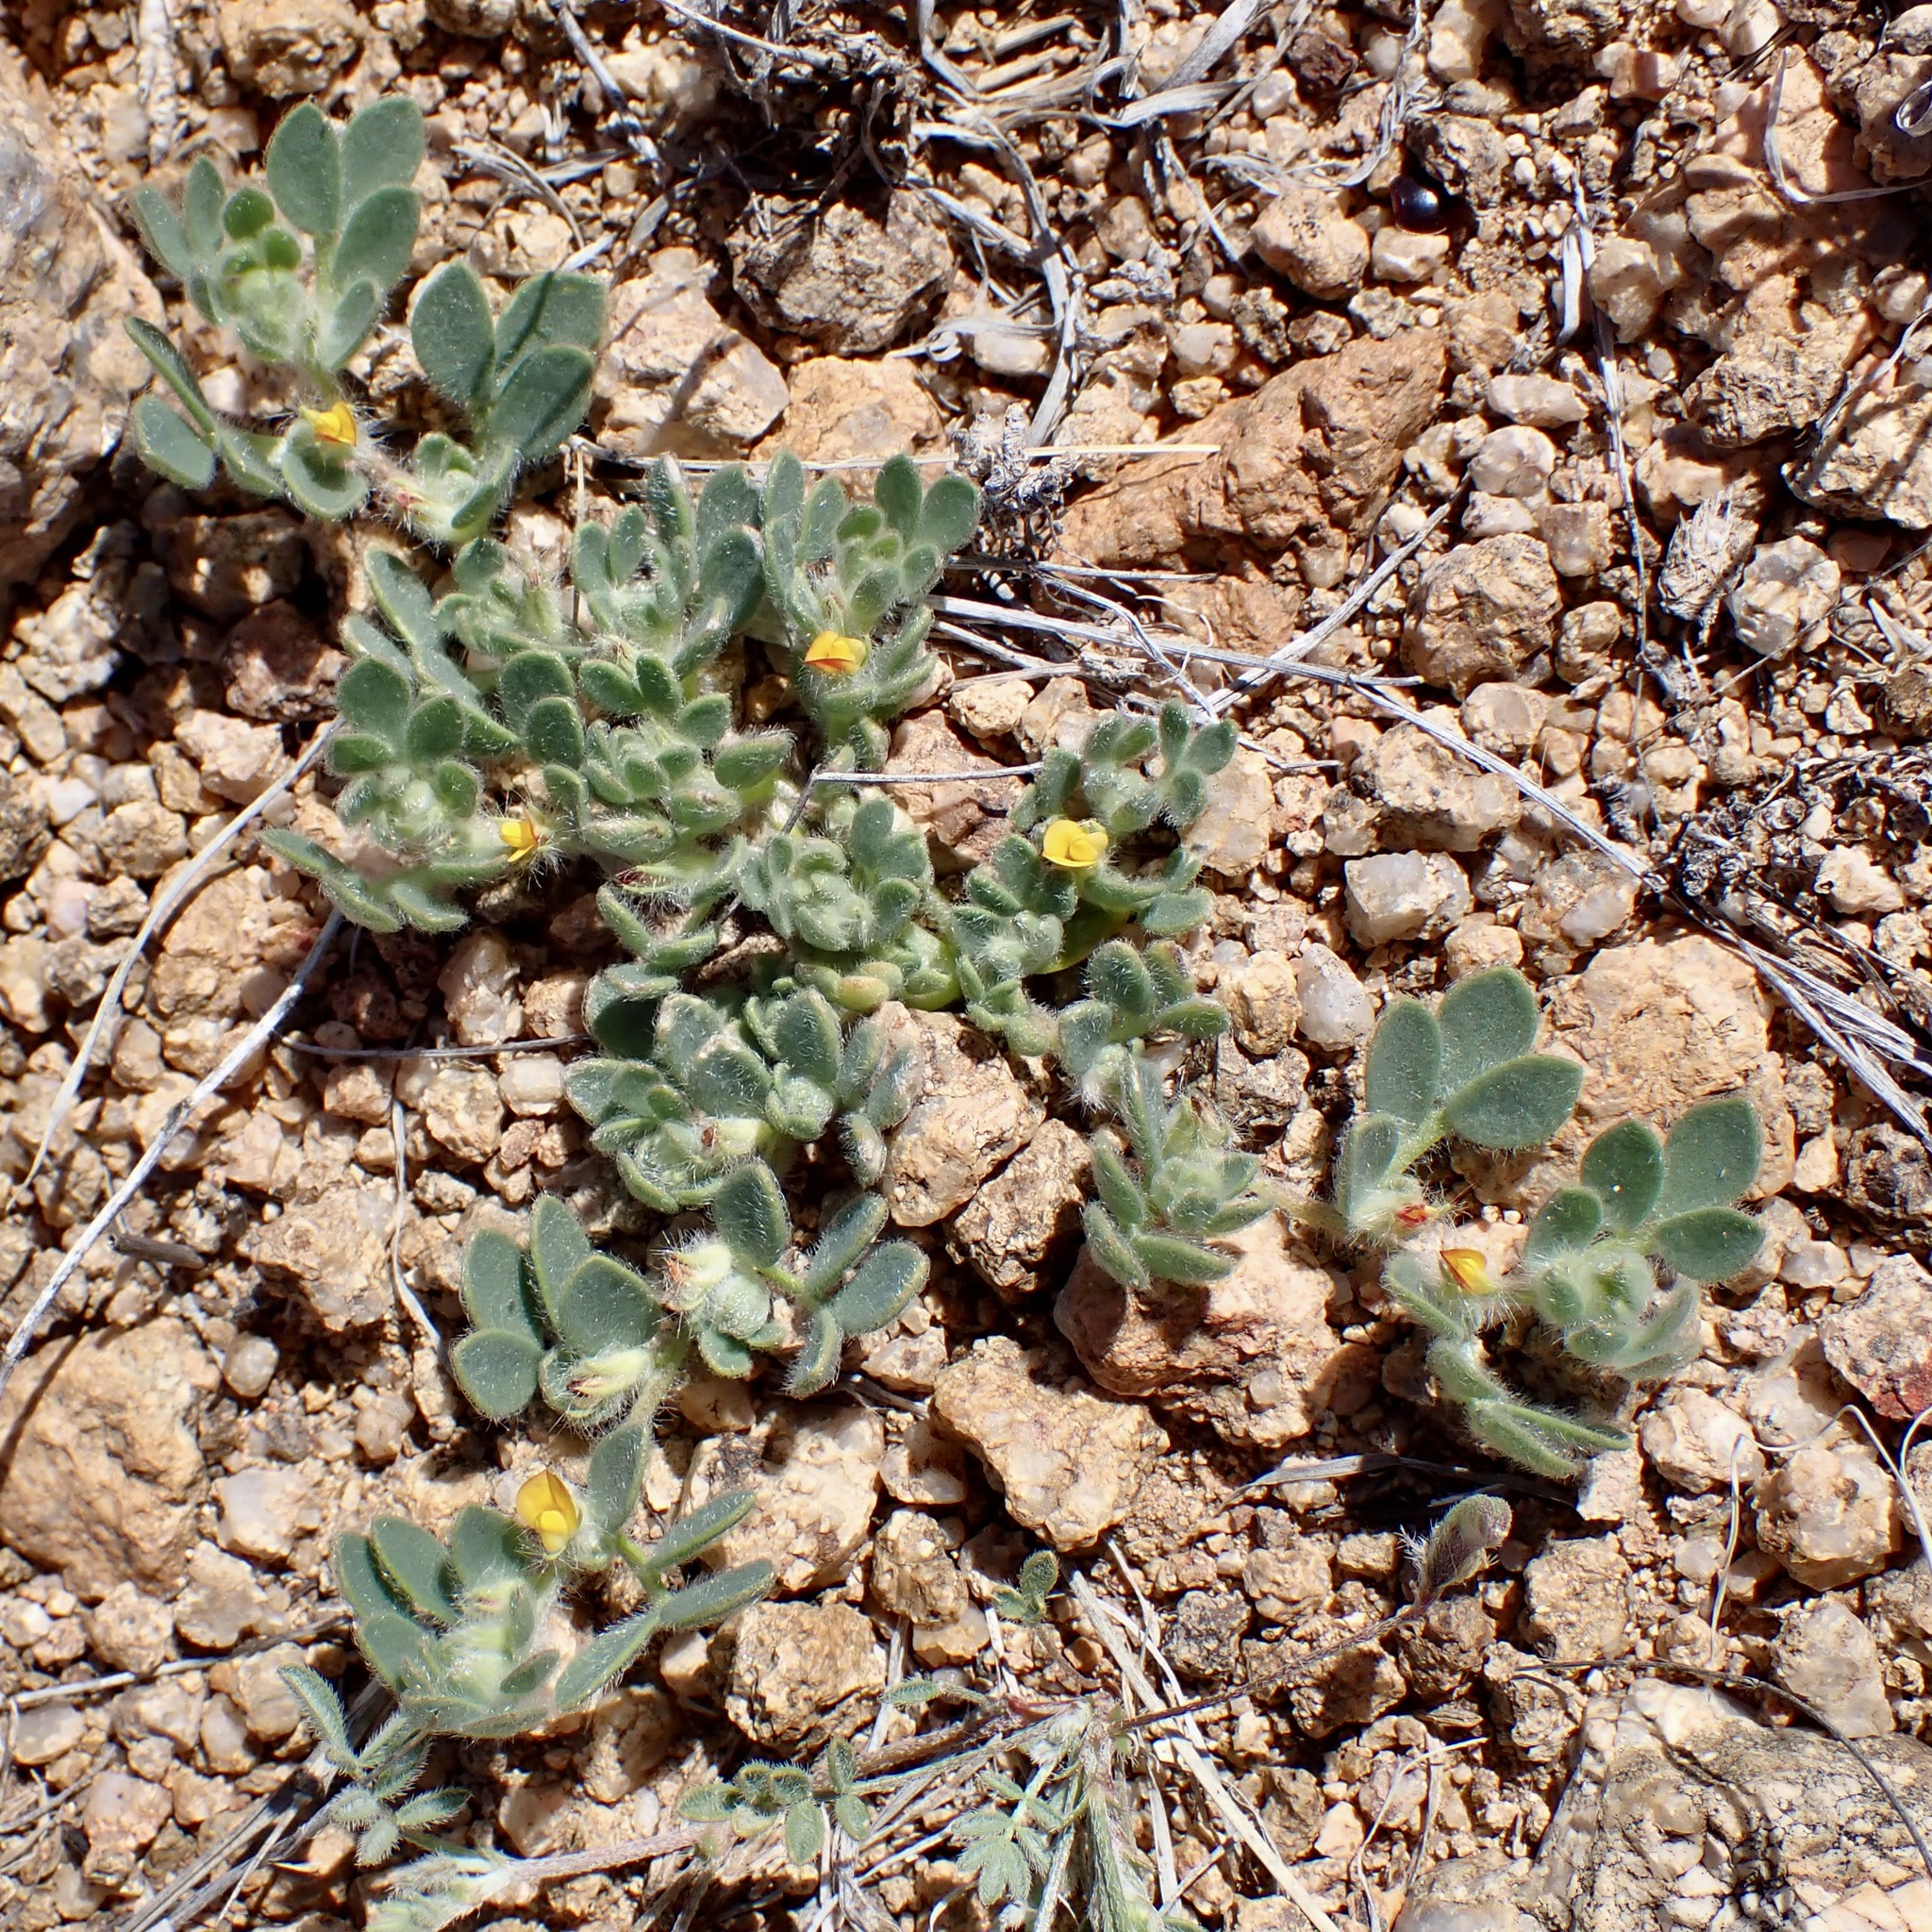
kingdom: Plantae
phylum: Tracheophyta
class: Magnoliopsida
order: Fabales
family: Fabaceae
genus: Acmispon
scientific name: Acmispon brachycarpus
